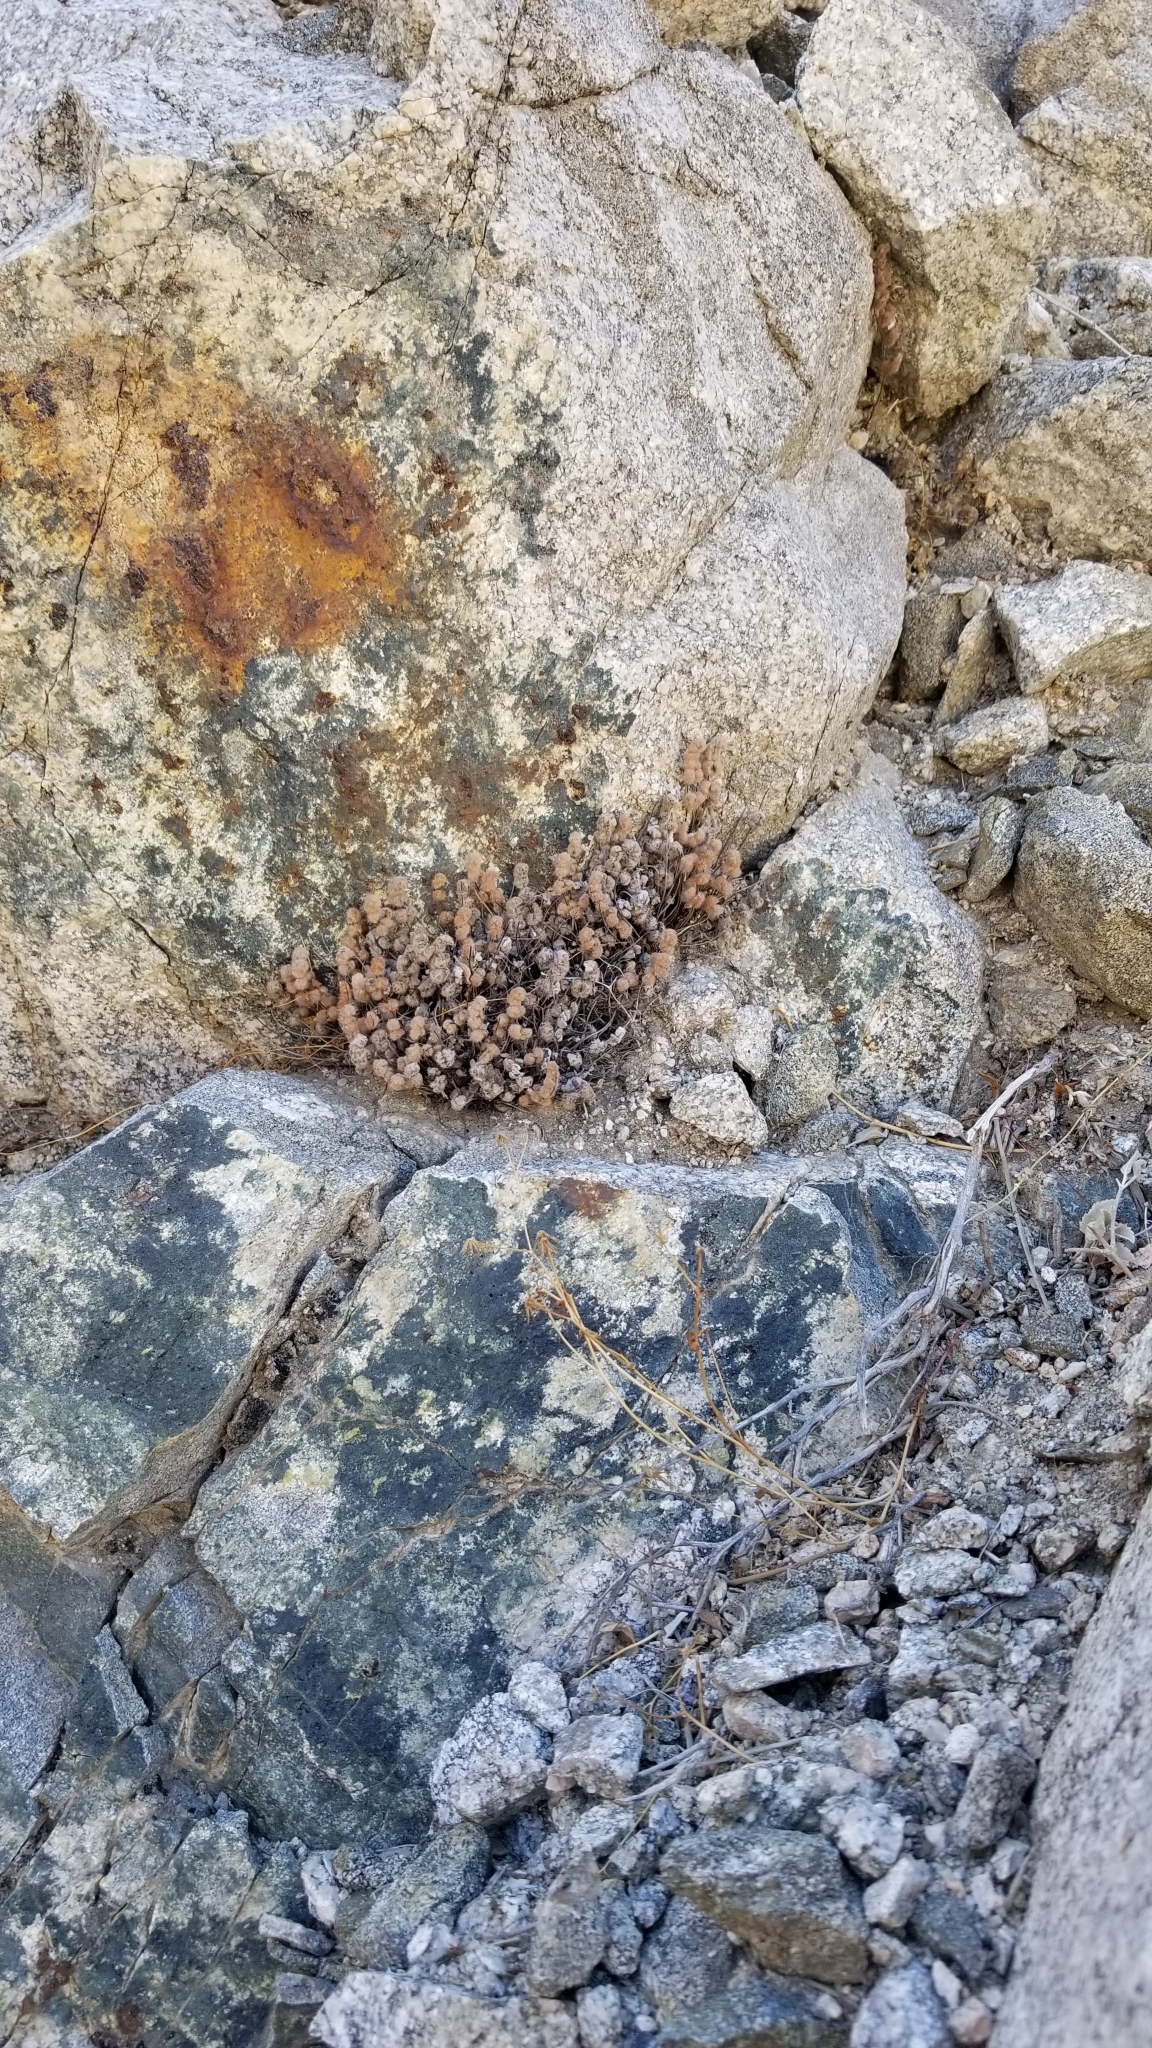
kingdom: Plantae
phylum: Tracheophyta
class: Polypodiopsida
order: Polypodiales
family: Pteridaceae
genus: Myriopteris
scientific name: Myriopteris parryi
